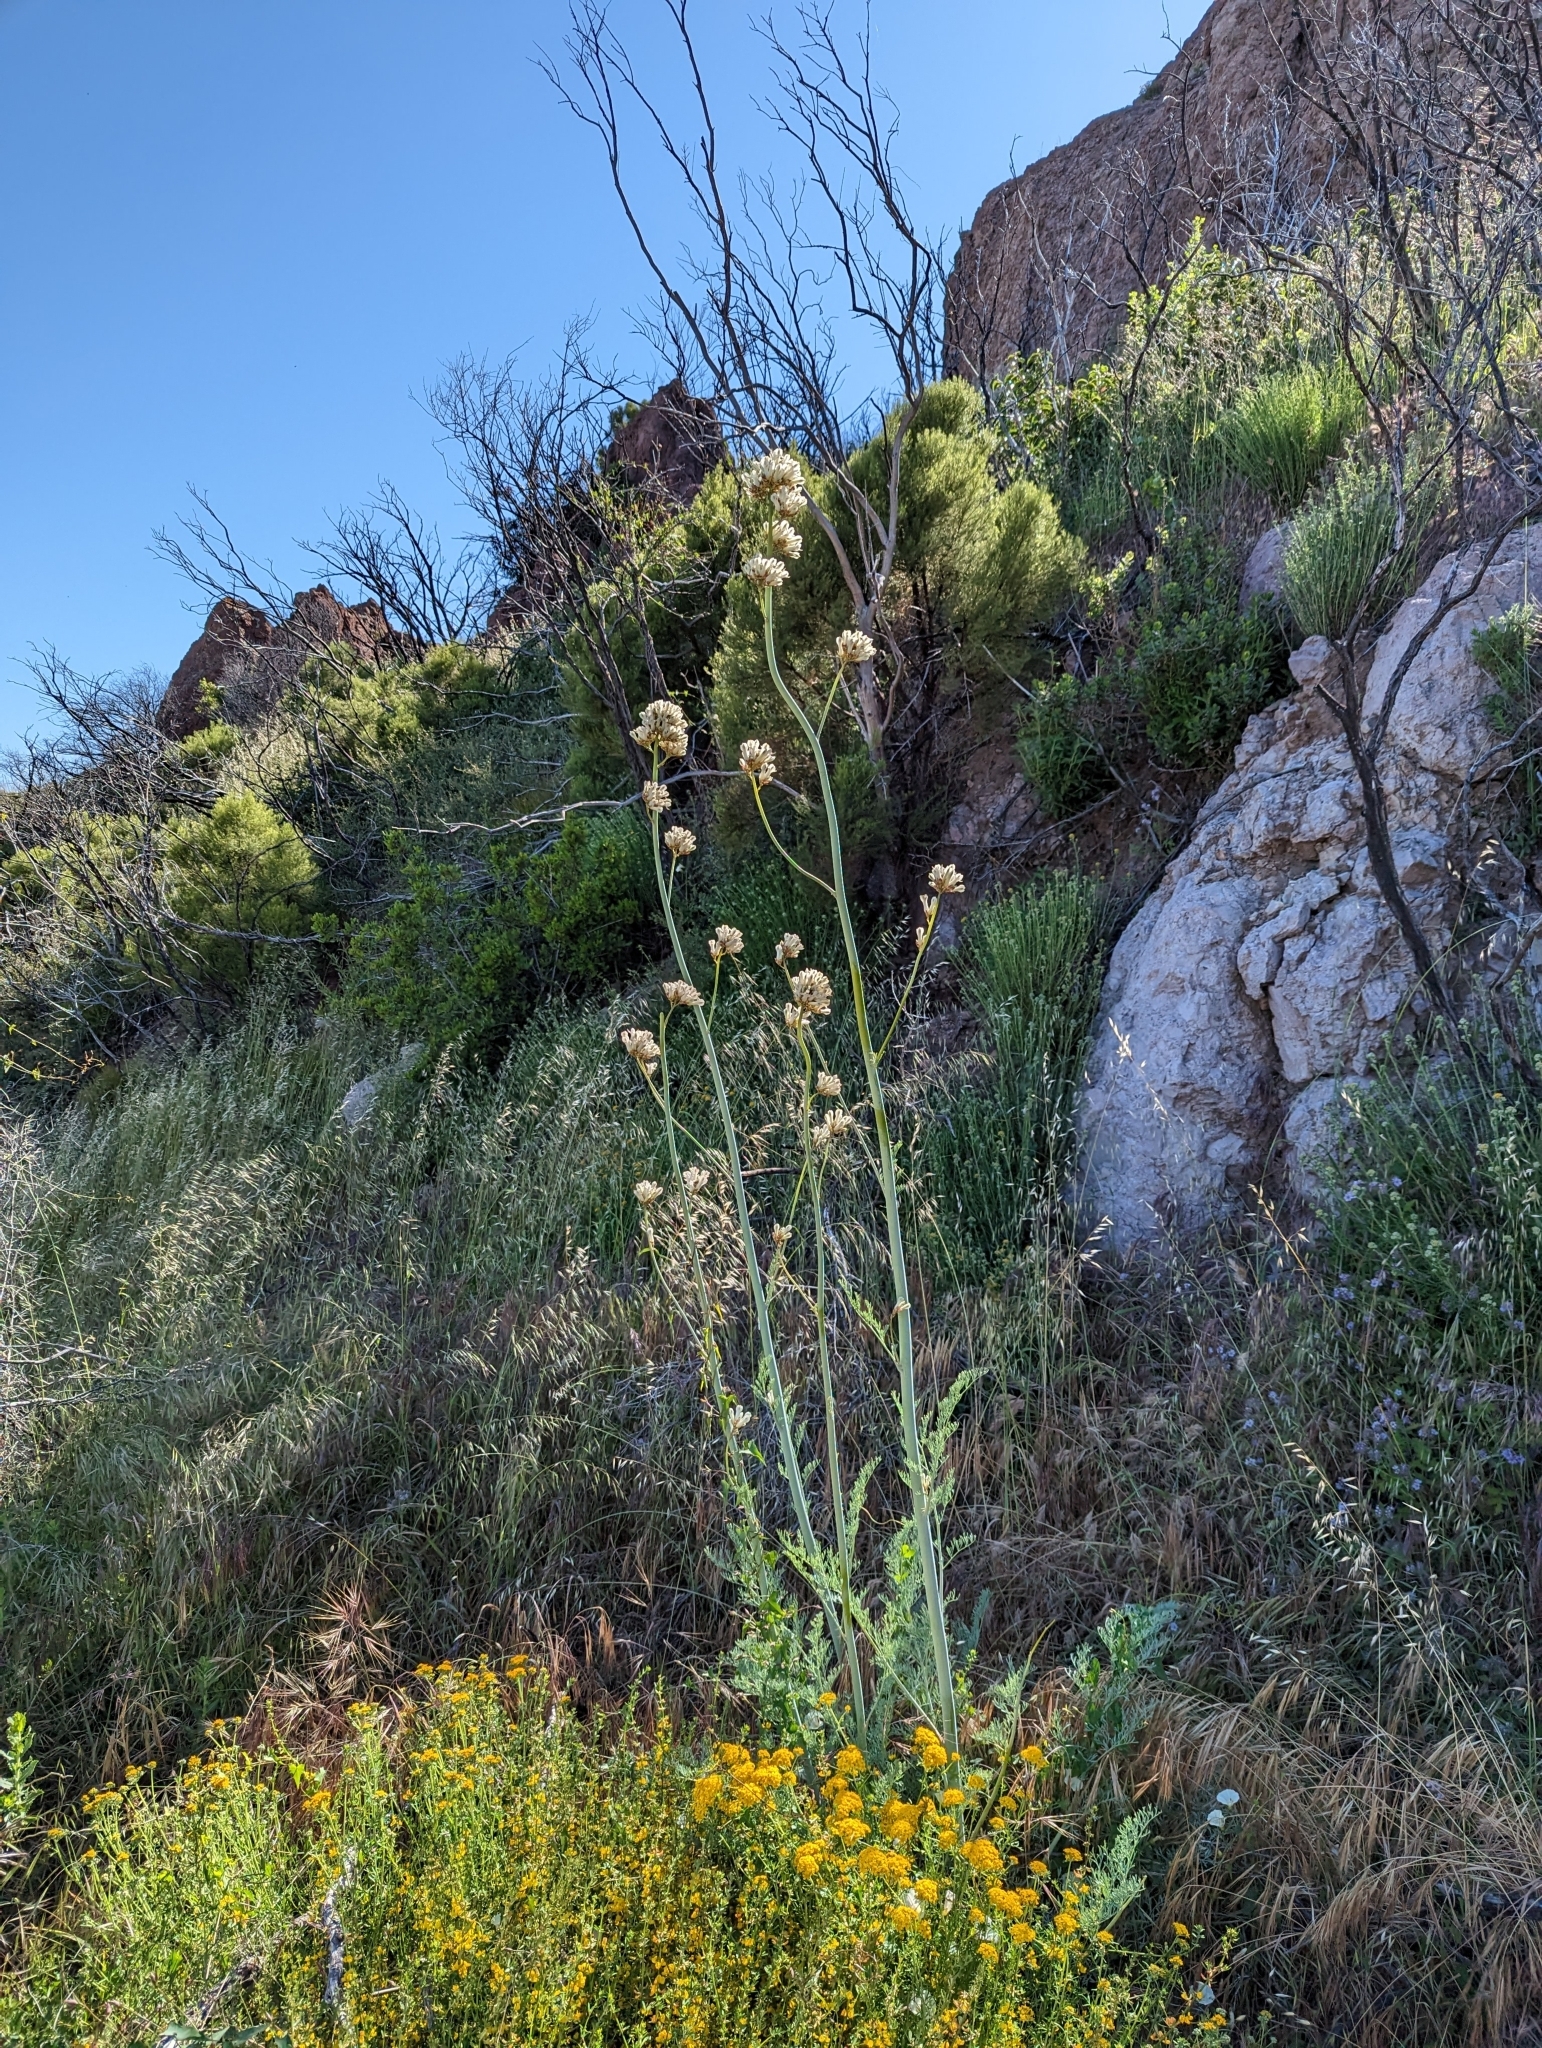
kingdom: Plantae
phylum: Tracheophyta
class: Magnoliopsida
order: Ranunculales
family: Papaveraceae
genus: Ehrendorferia
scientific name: Ehrendorferia ochroleuca
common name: White eardrops
